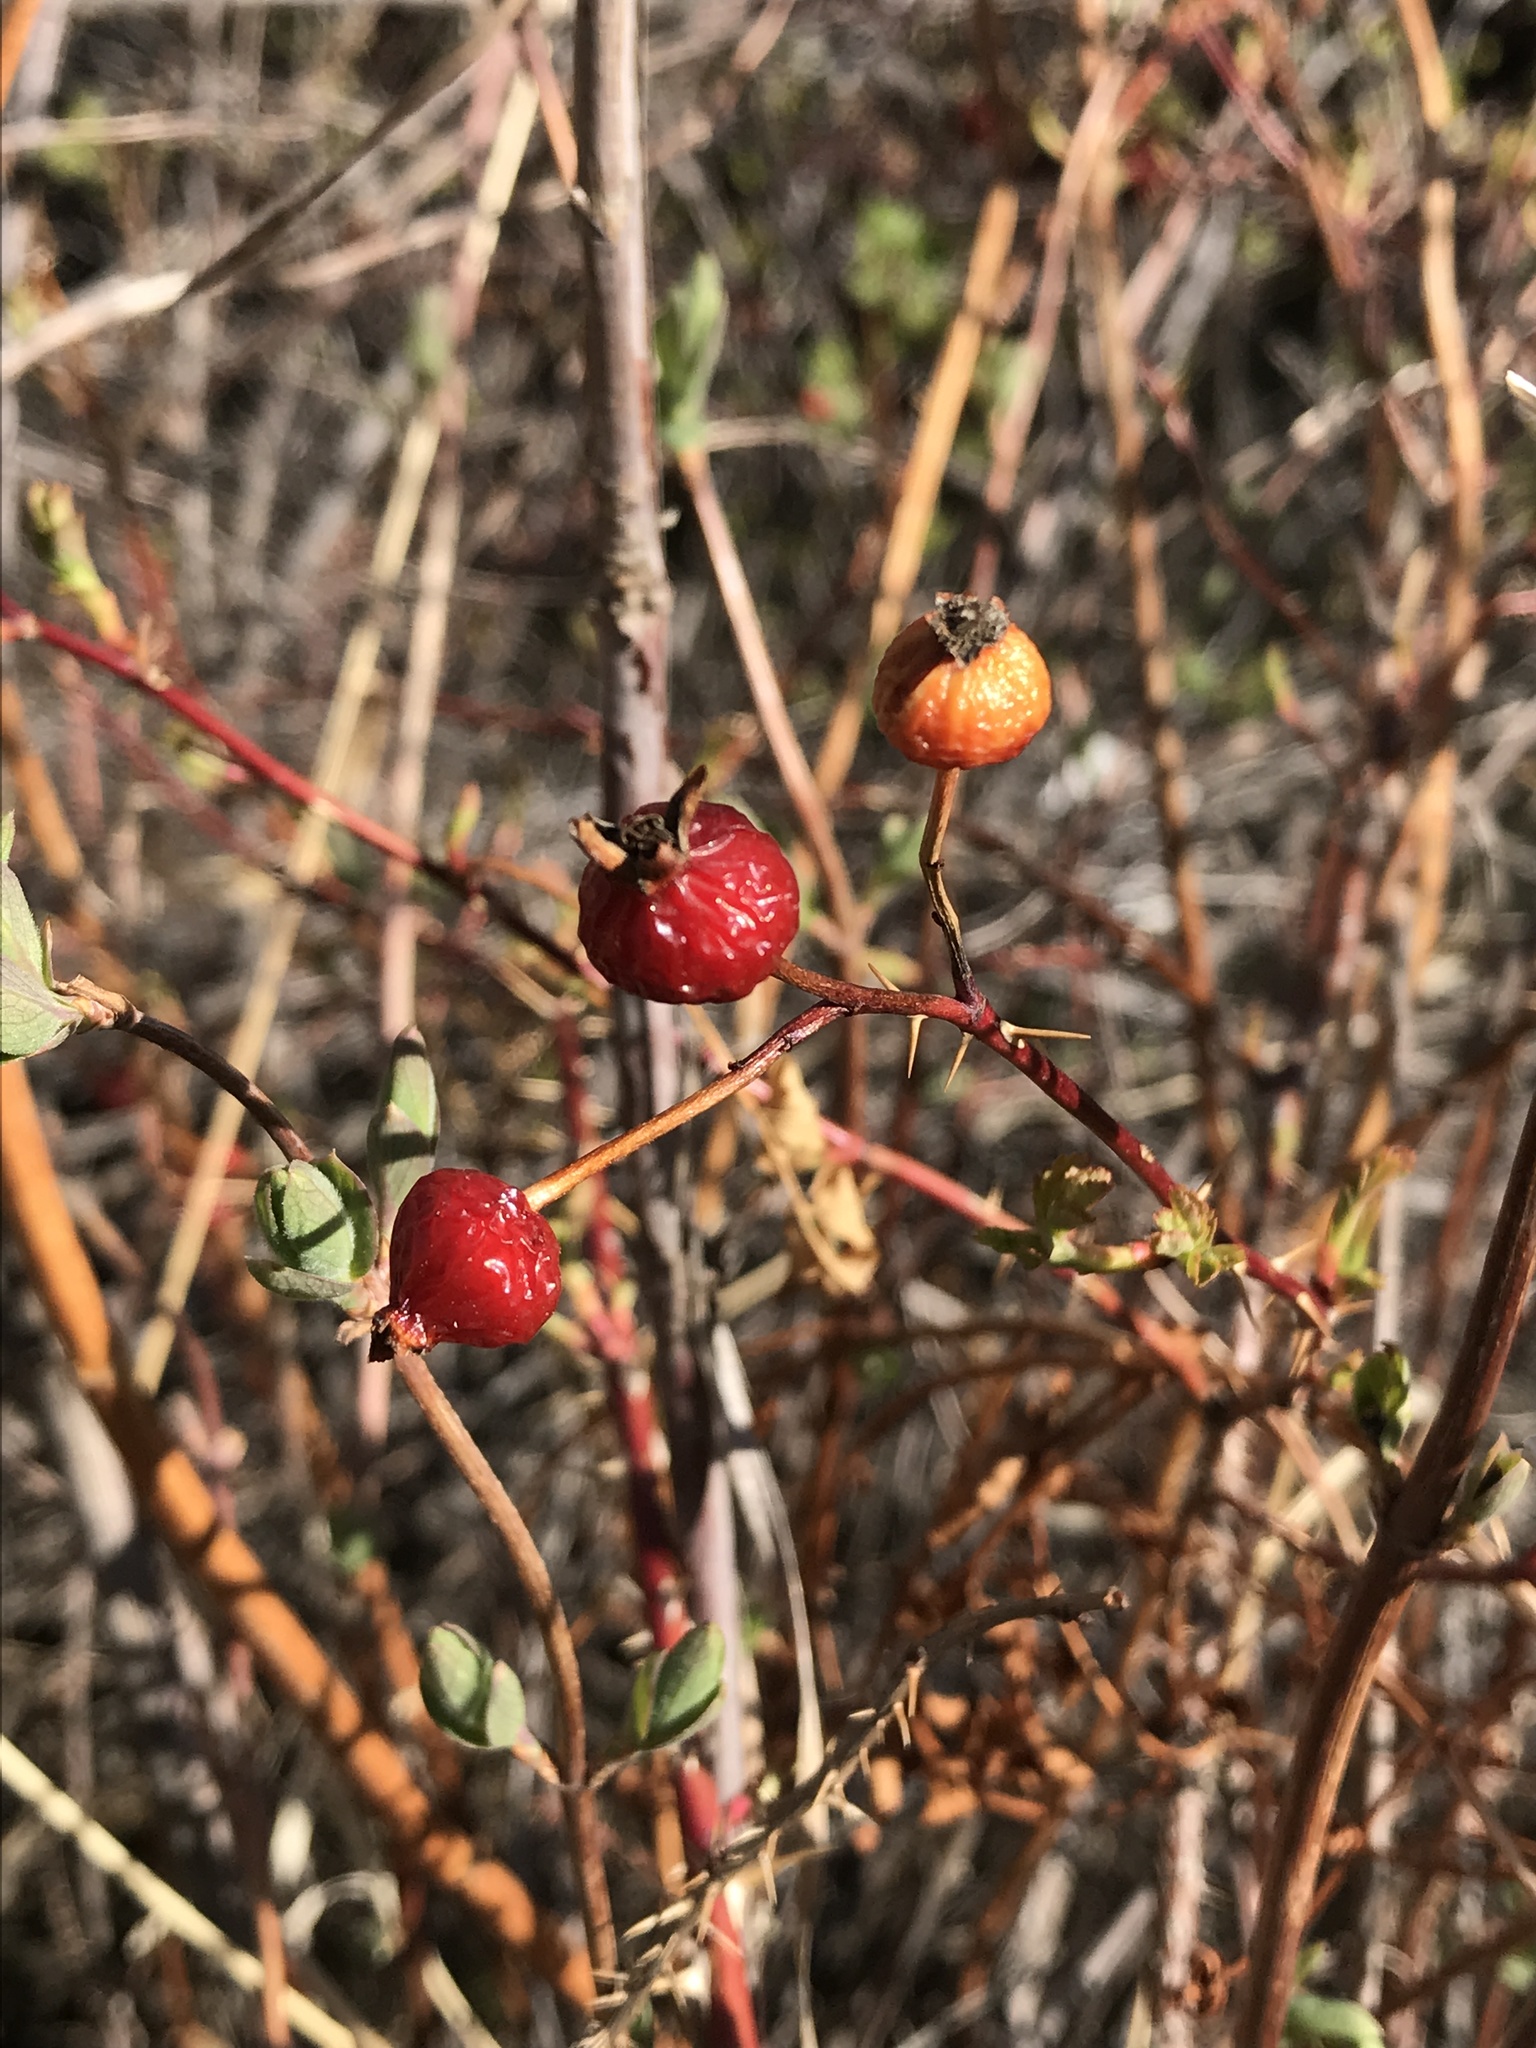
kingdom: Plantae
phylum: Tracheophyta
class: Magnoliopsida
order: Rosales
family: Rosaceae
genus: Rosa
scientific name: Rosa woodsii
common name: Woods's rose
